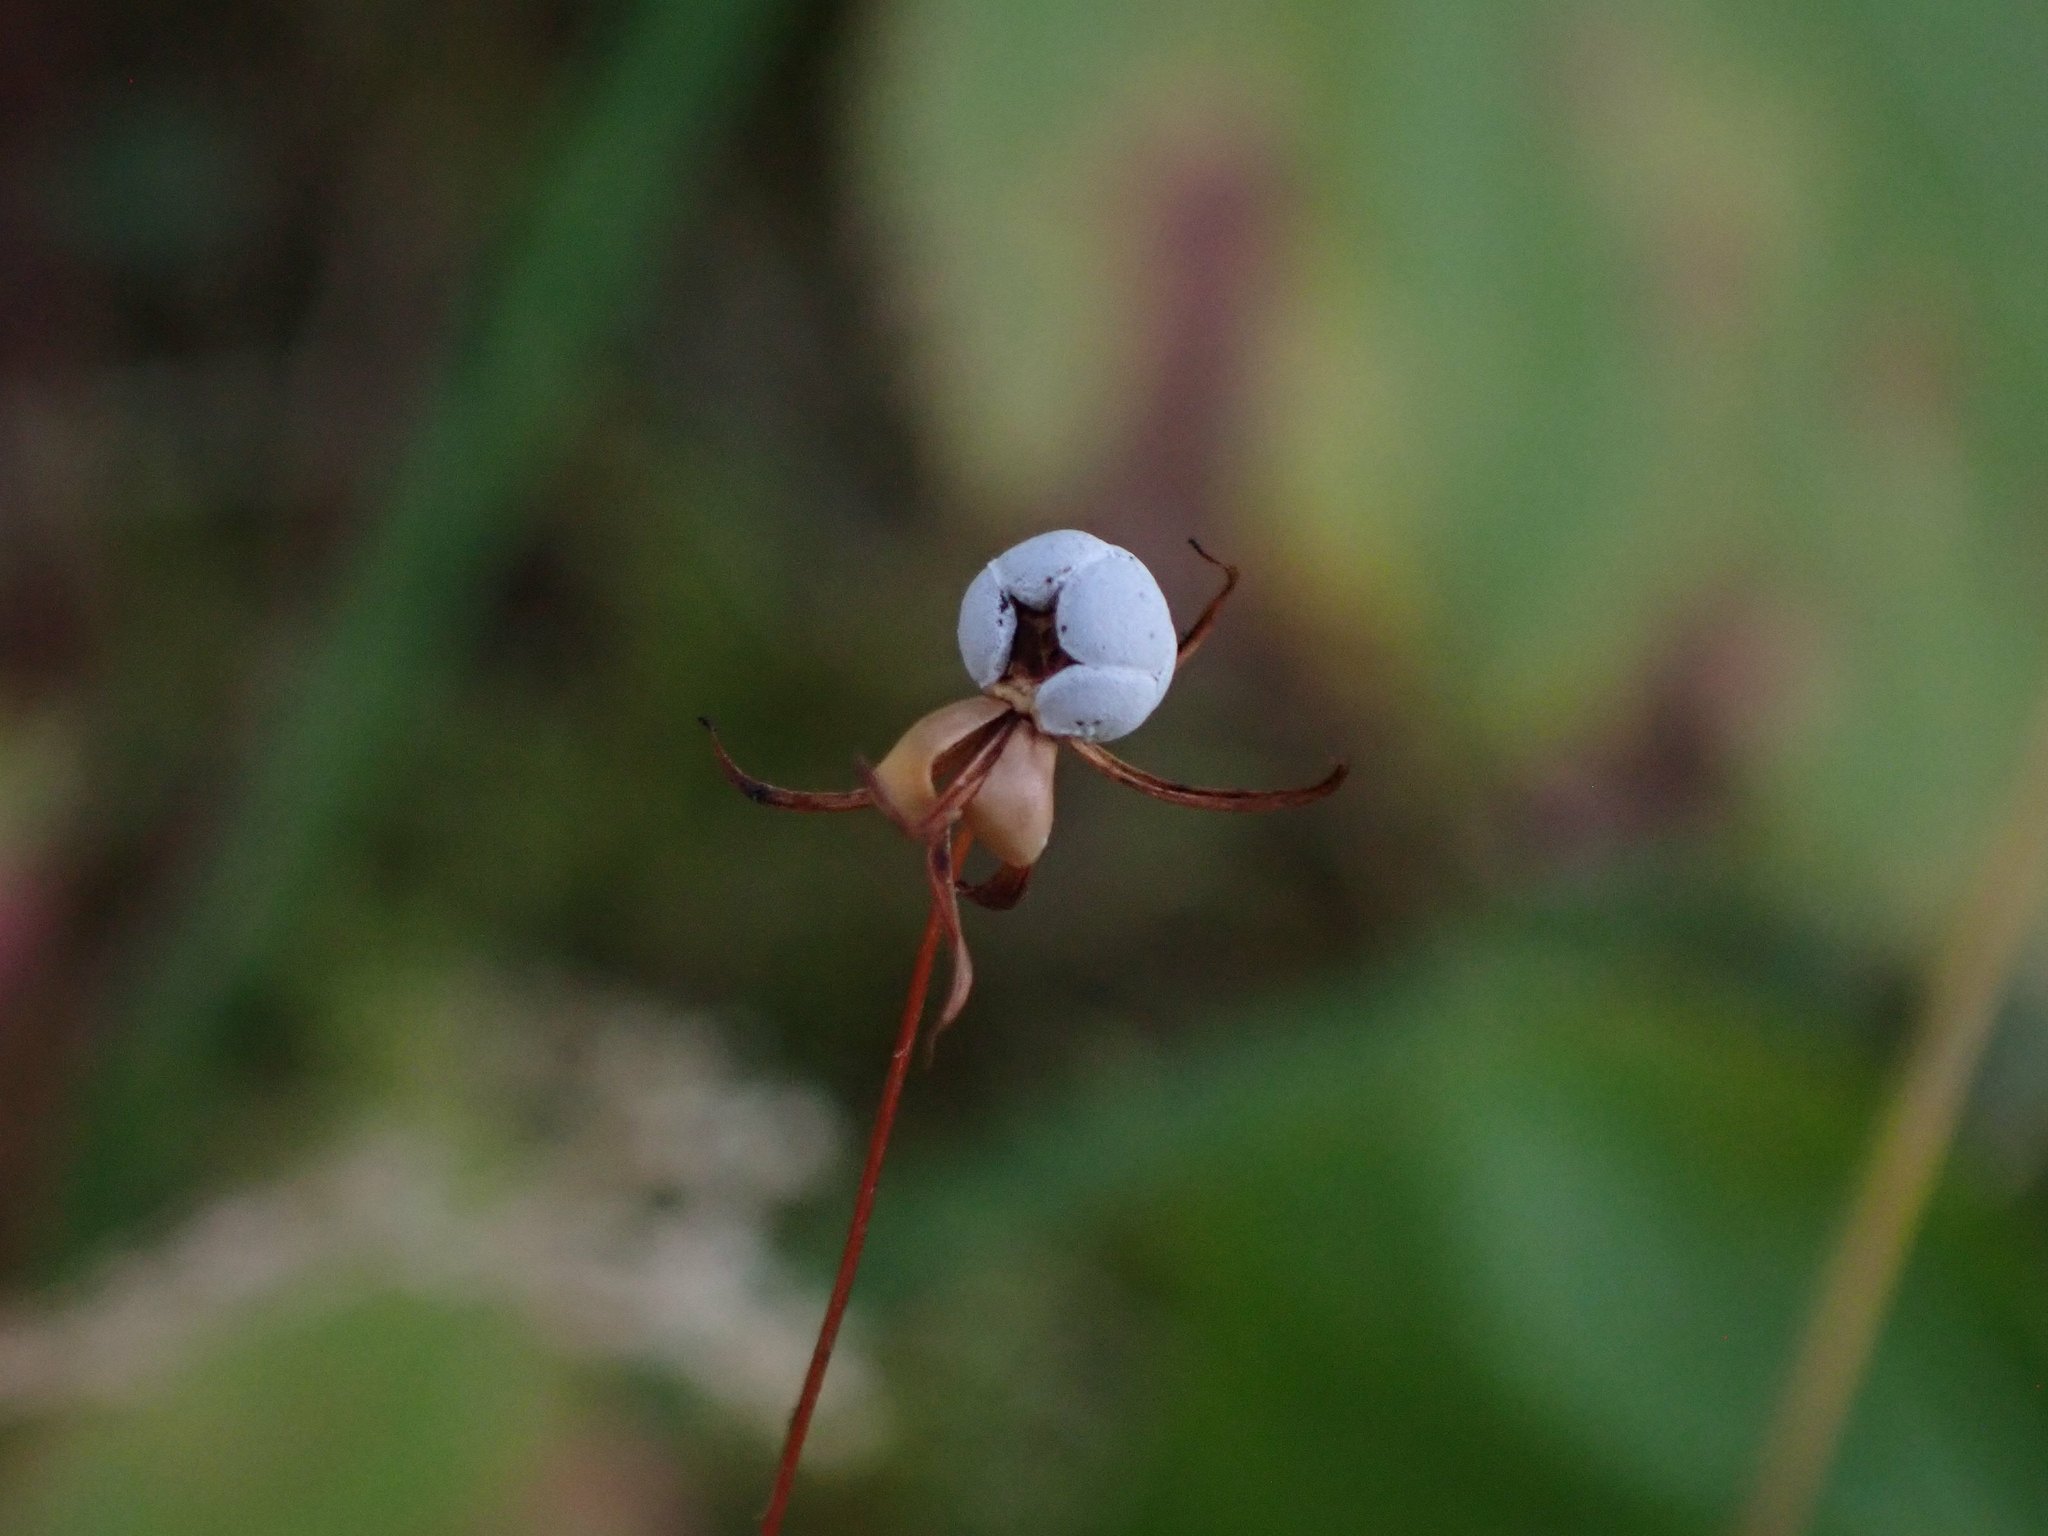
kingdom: Plantae
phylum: Tracheophyta
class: Magnoliopsida
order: Ericales
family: Ericaceae
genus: Gaultheria
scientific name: Gaultheria hispidula
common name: Cancer wintergreen
